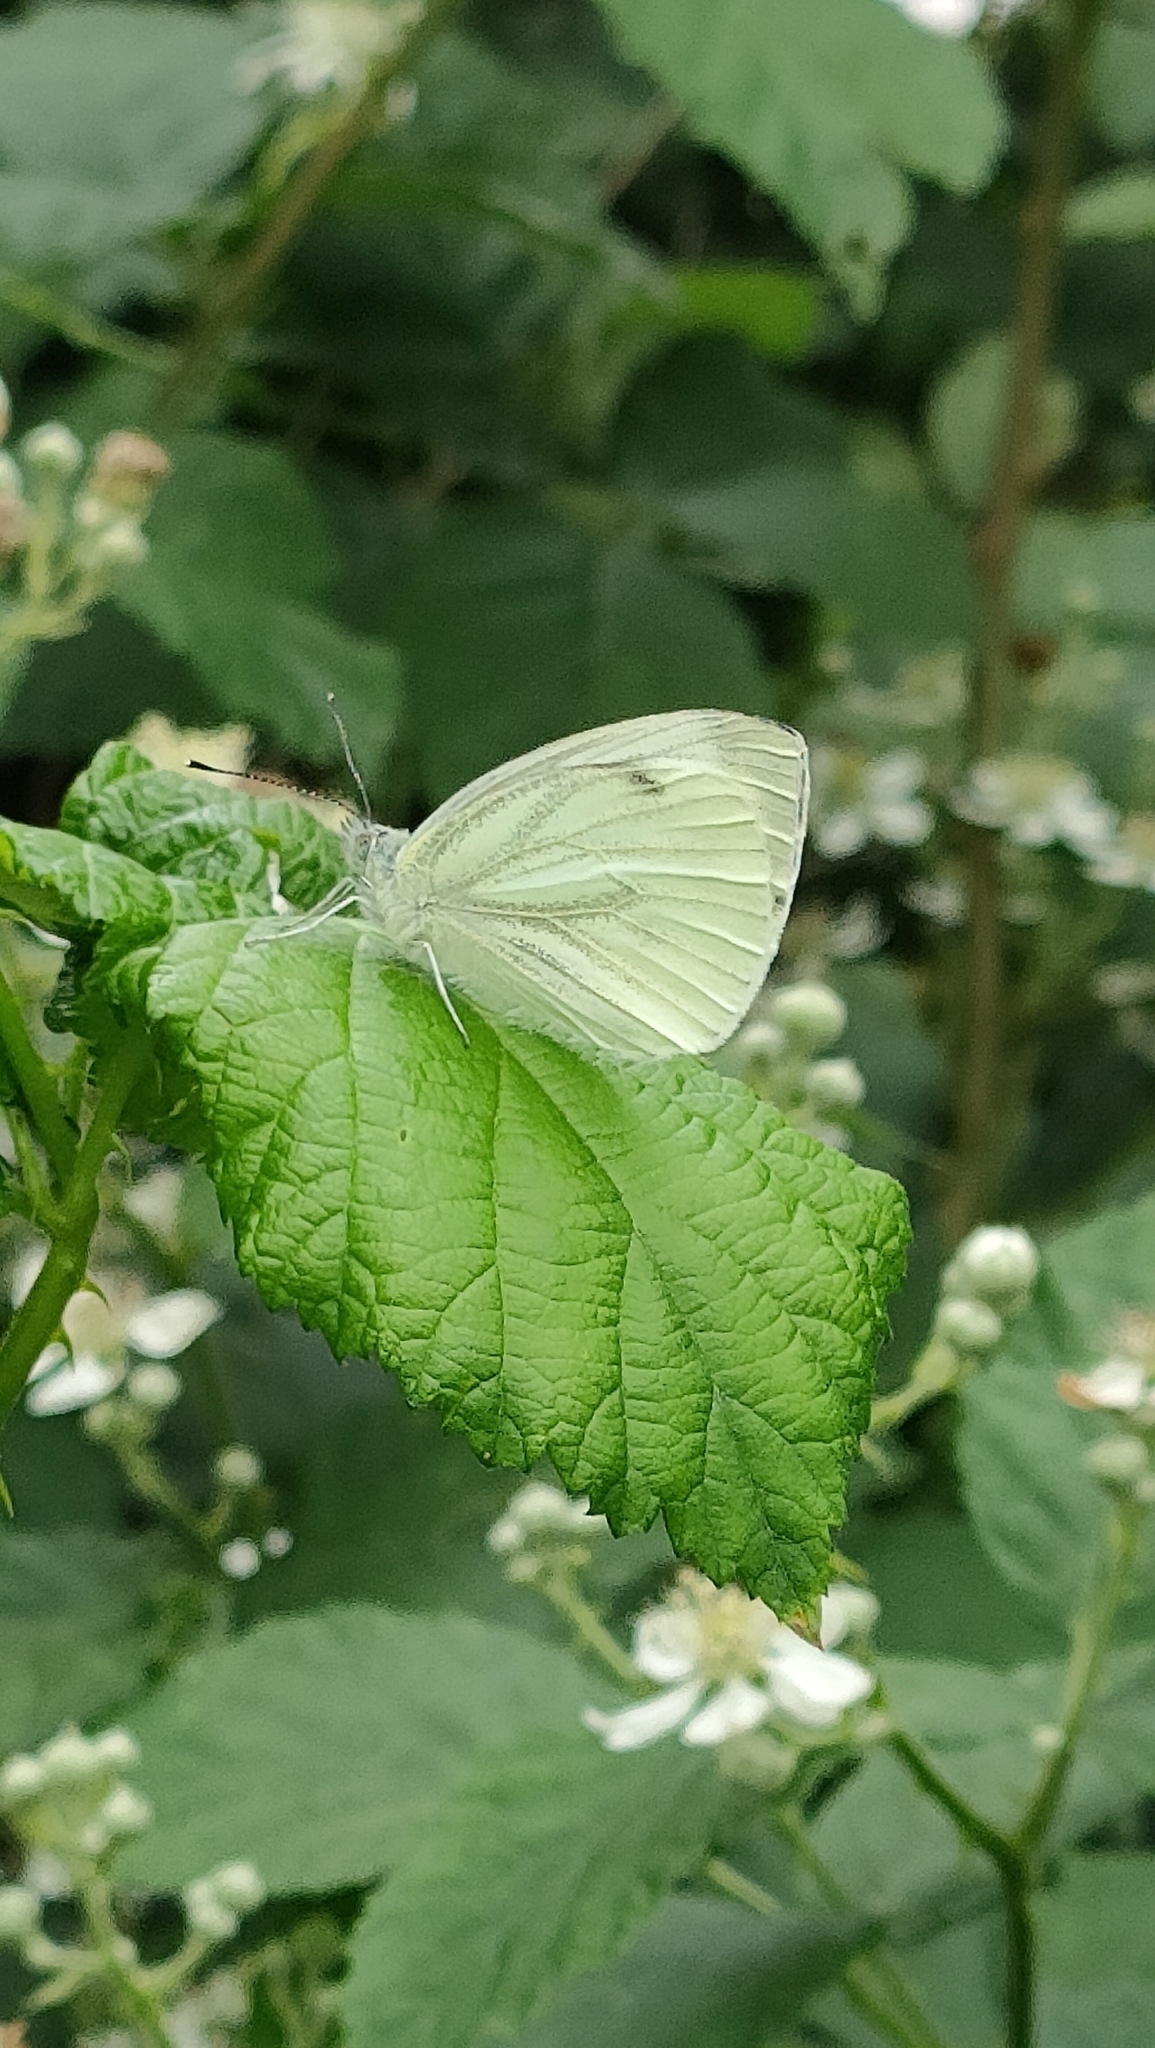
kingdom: Animalia
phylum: Arthropoda
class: Insecta
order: Lepidoptera
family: Pieridae
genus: Pieris
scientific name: Pieris napi
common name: Green-veined white
